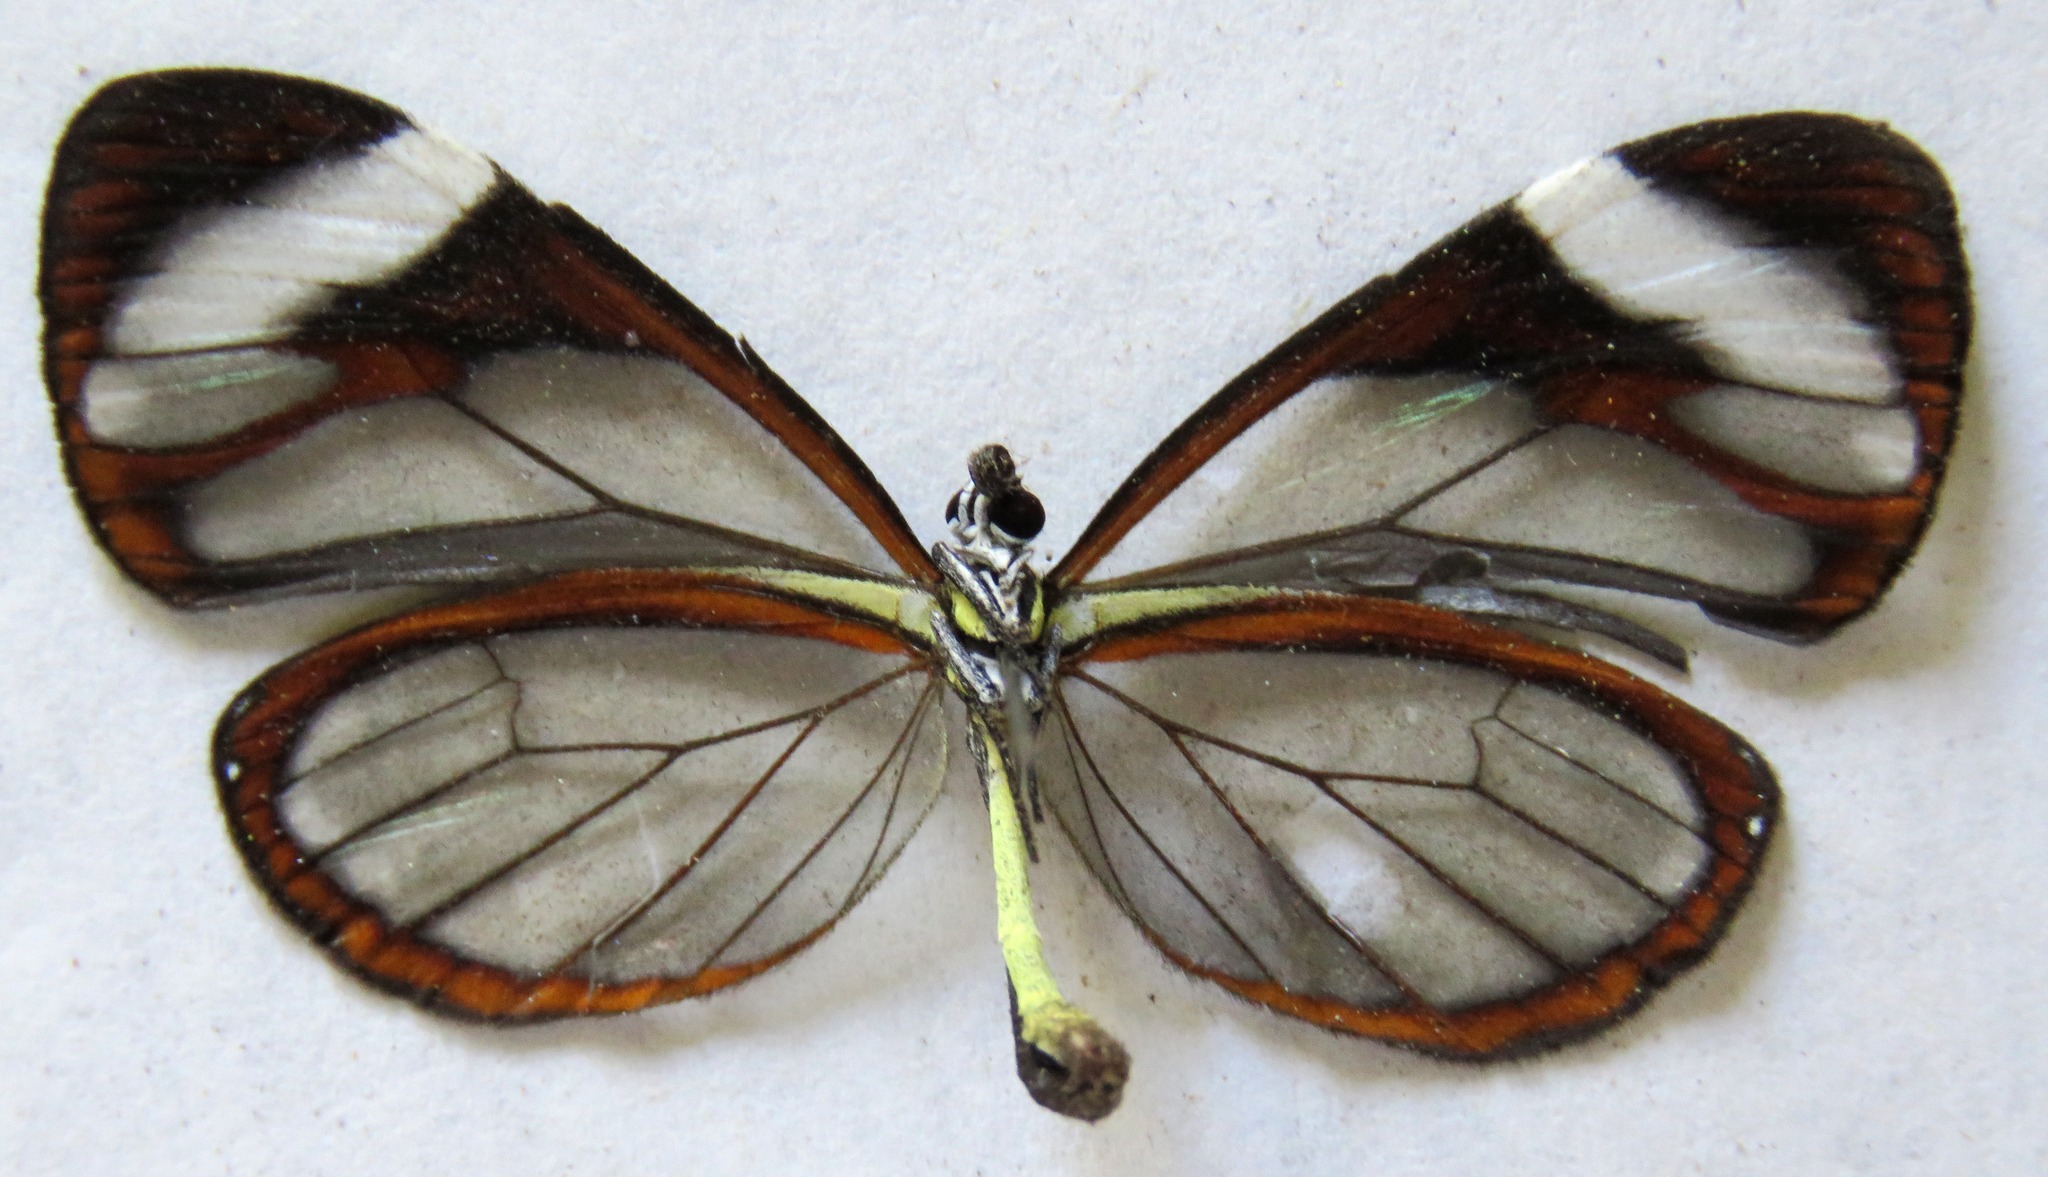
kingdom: Animalia
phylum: Arthropoda
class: Insecta
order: Lepidoptera
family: Nymphalidae
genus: Ithomia
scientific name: Ithomia patilla
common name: Patilla clearwing
